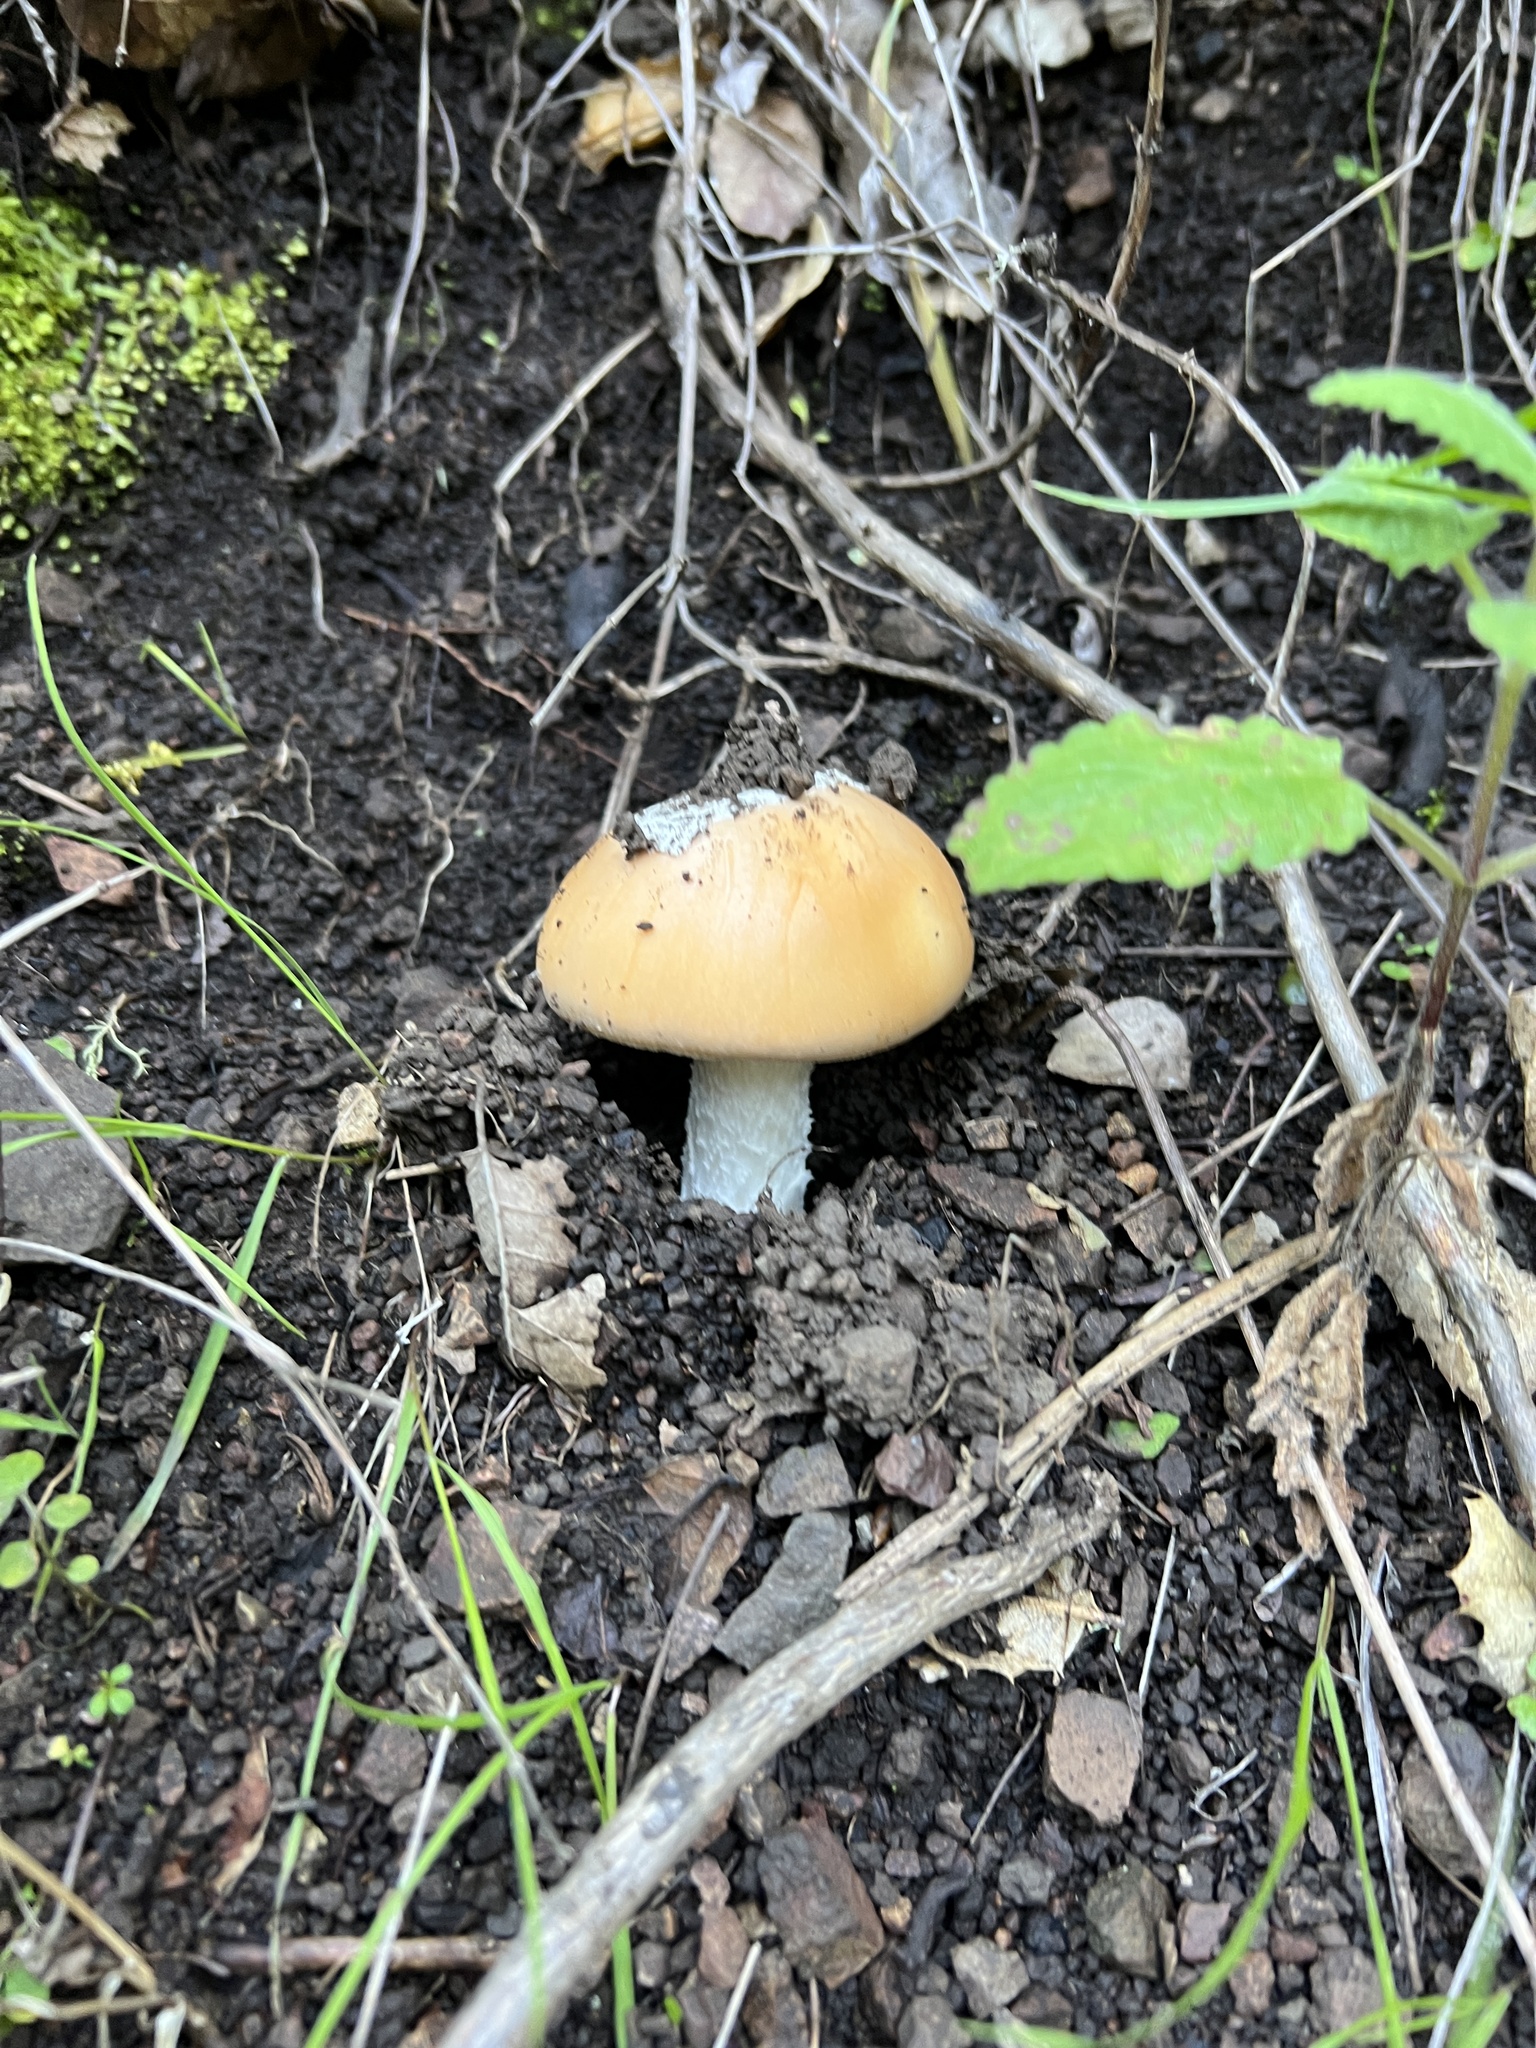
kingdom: Fungi
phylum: Basidiomycota
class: Agaricomycetes
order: Agaricales
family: Amanitaceae
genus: Amanita
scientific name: Amanita velosa
